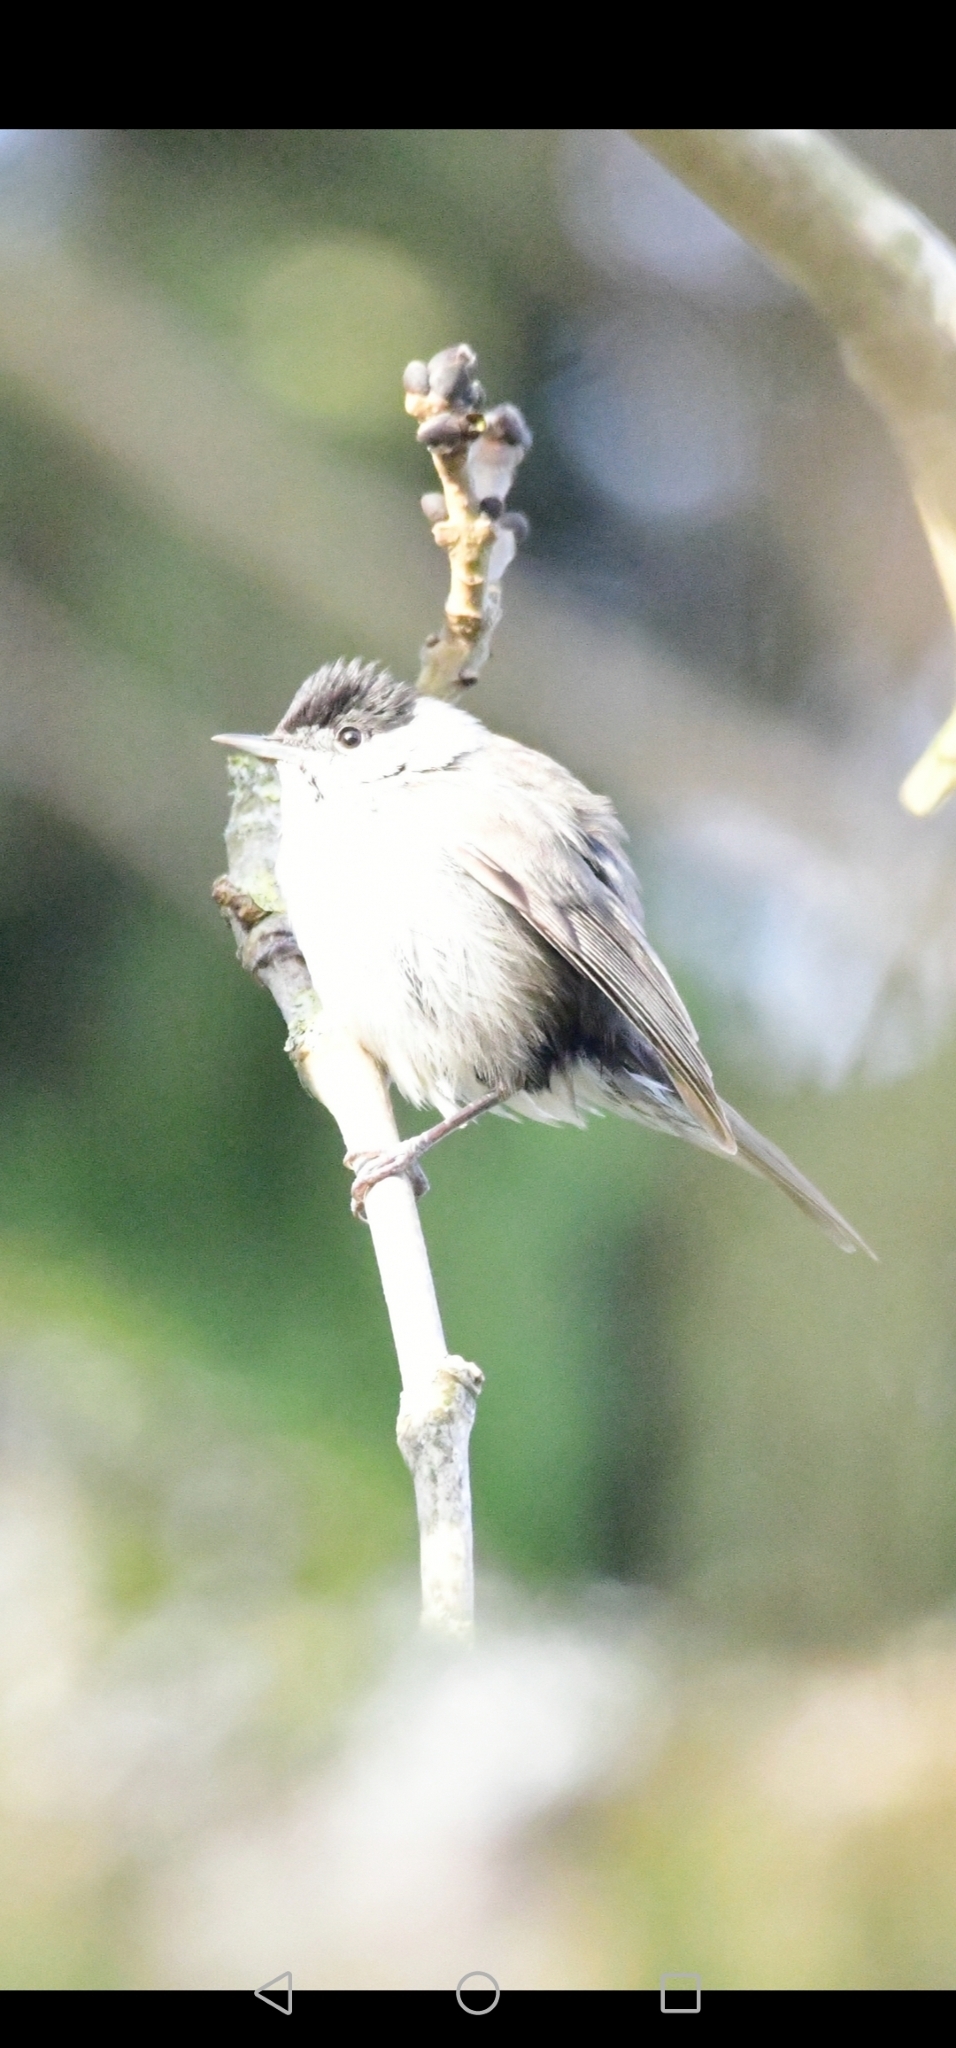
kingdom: Animalia
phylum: Chordata
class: Aves
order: Passeriformes
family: Sylviidae
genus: Sylvia
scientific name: Sylvia atricapilla
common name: Eurasian blackcap
